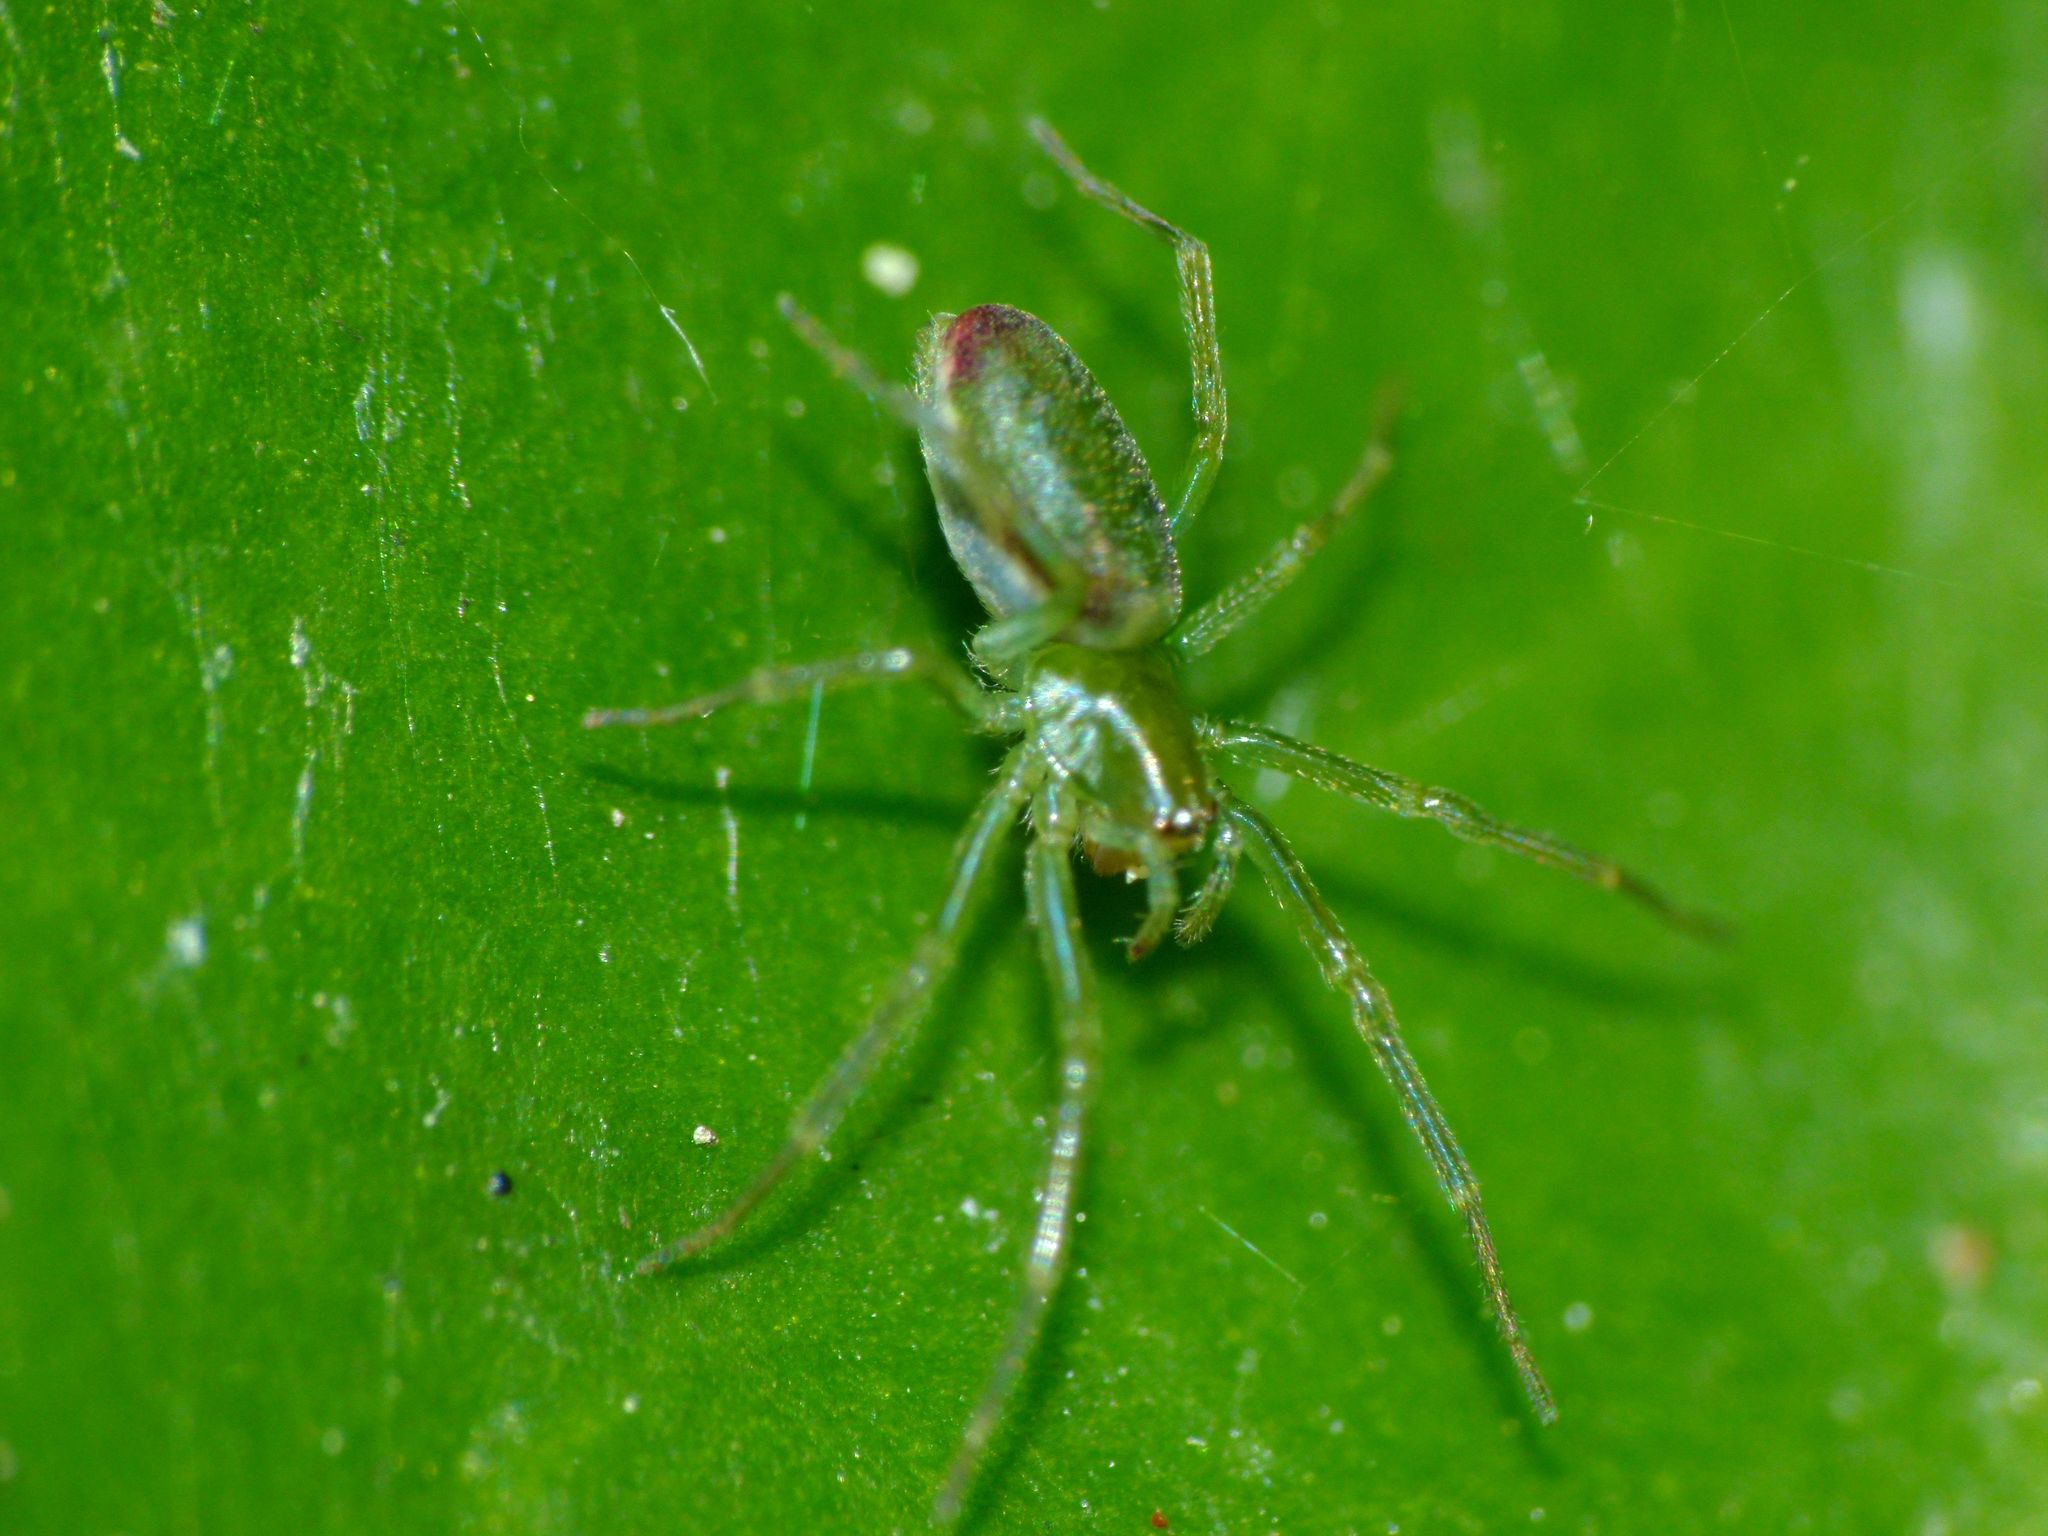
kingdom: Animalia
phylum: Arthropoda
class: Arachnida
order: Araneae
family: Dictynidae
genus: Paradictyna
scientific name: Paradictyna ilamia
